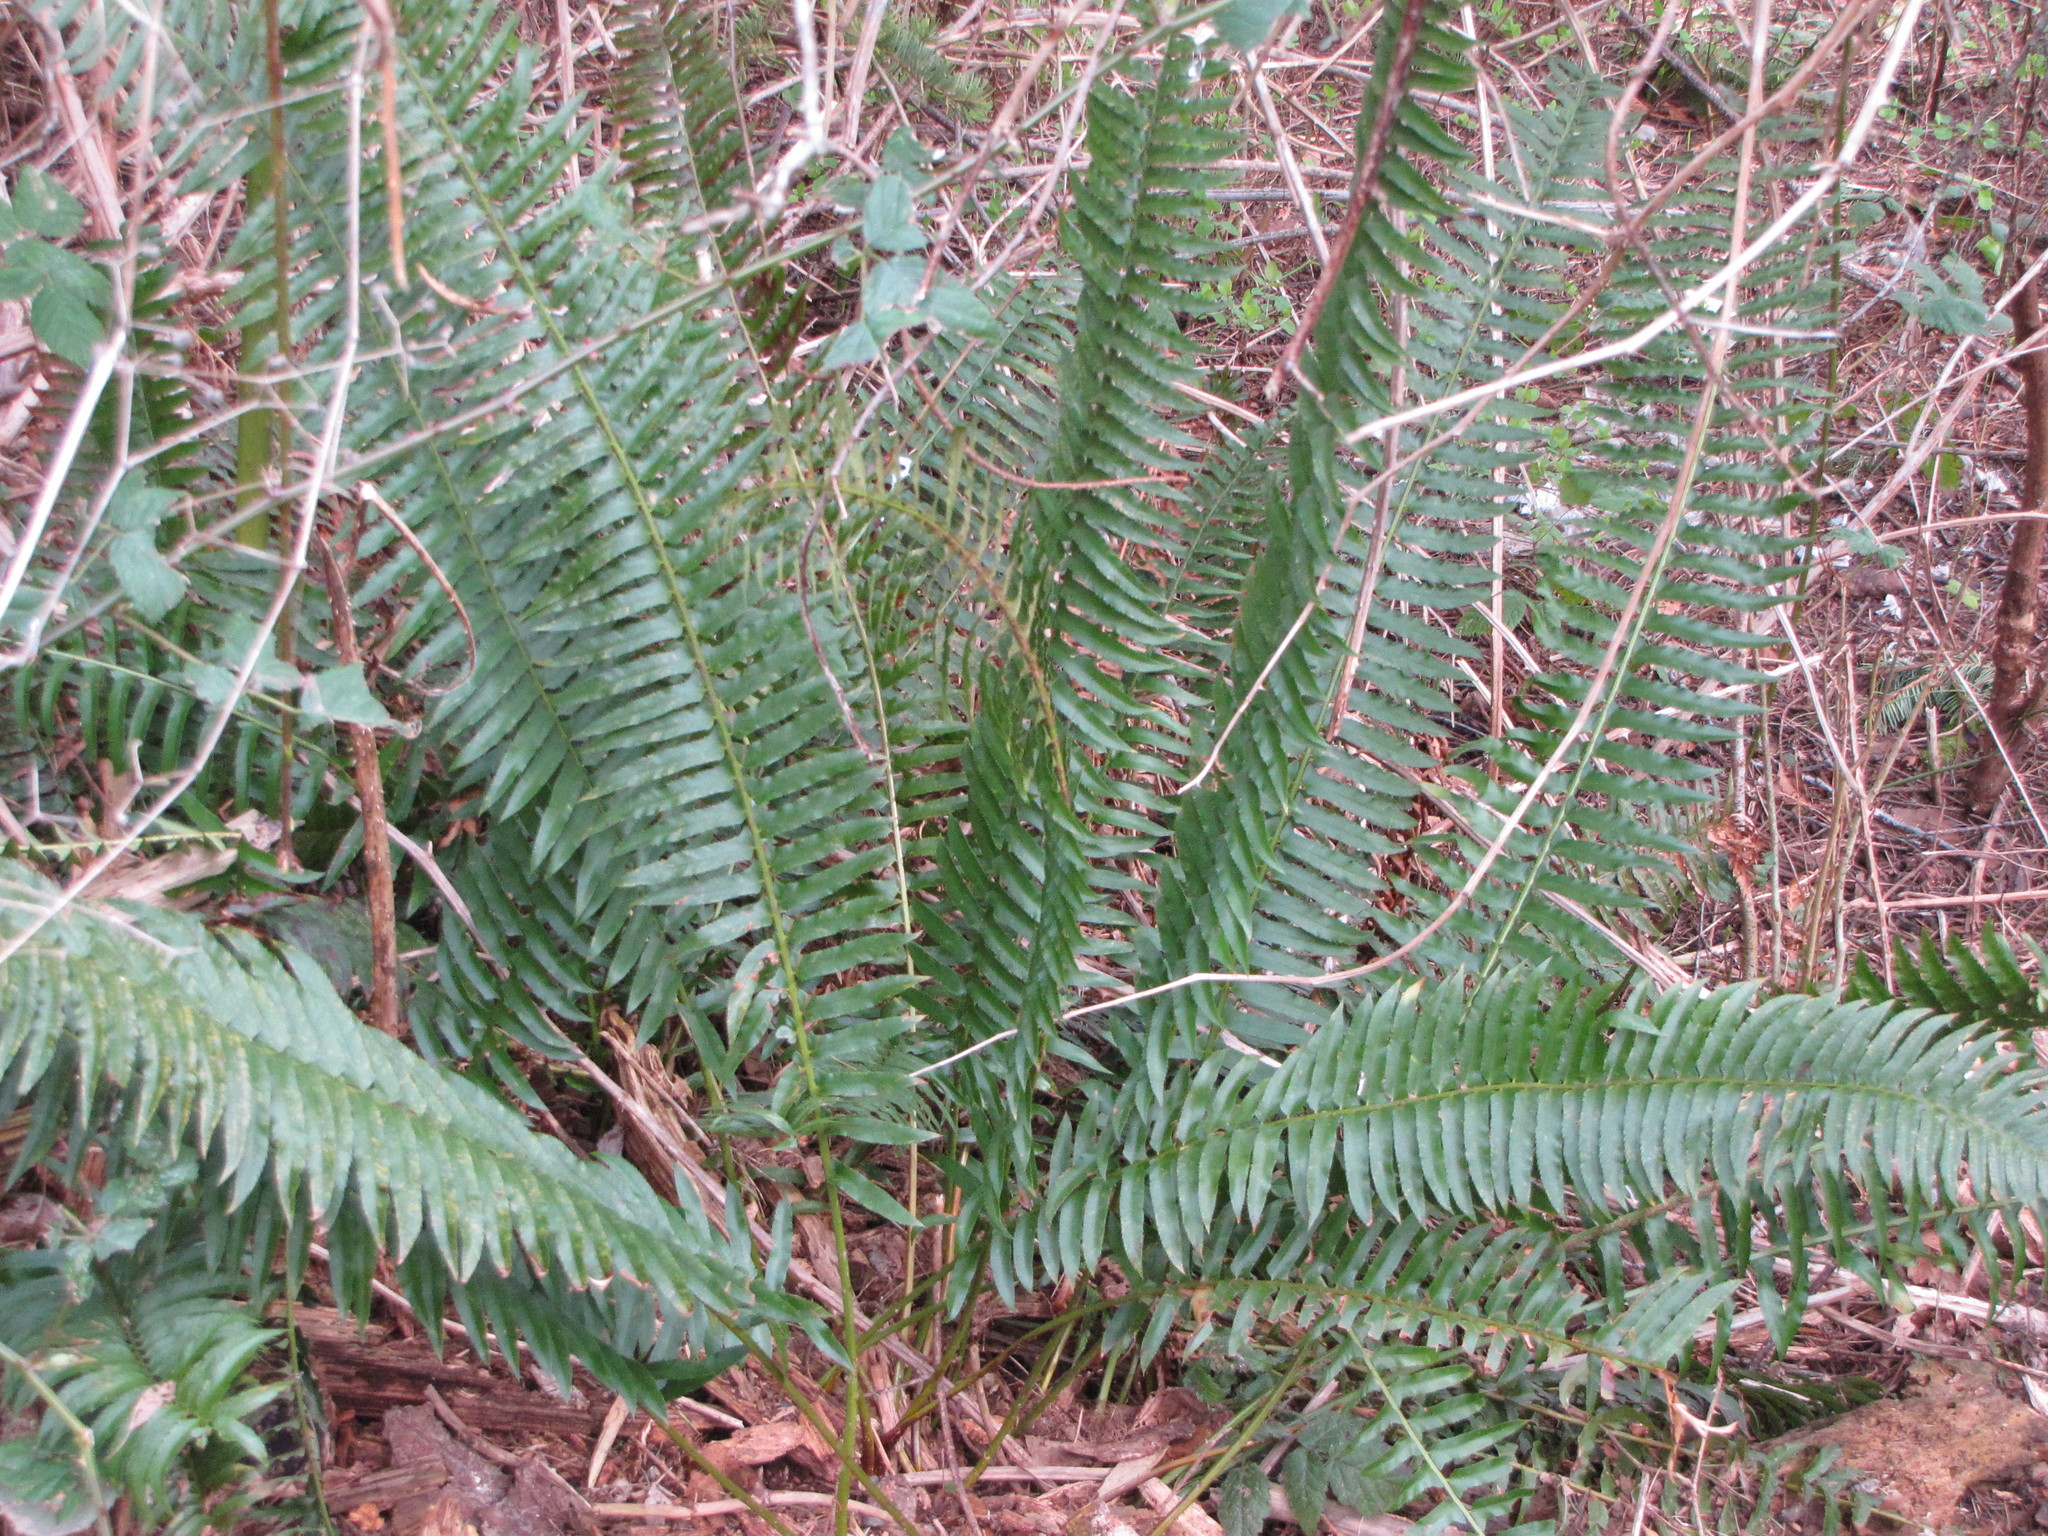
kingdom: Plantae
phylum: Tracheophyta
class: Polypodiopsida
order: Polypodiales
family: Dryopteridaceae
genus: Polystichum
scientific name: Polystichum munitum
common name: Western sword-fern
